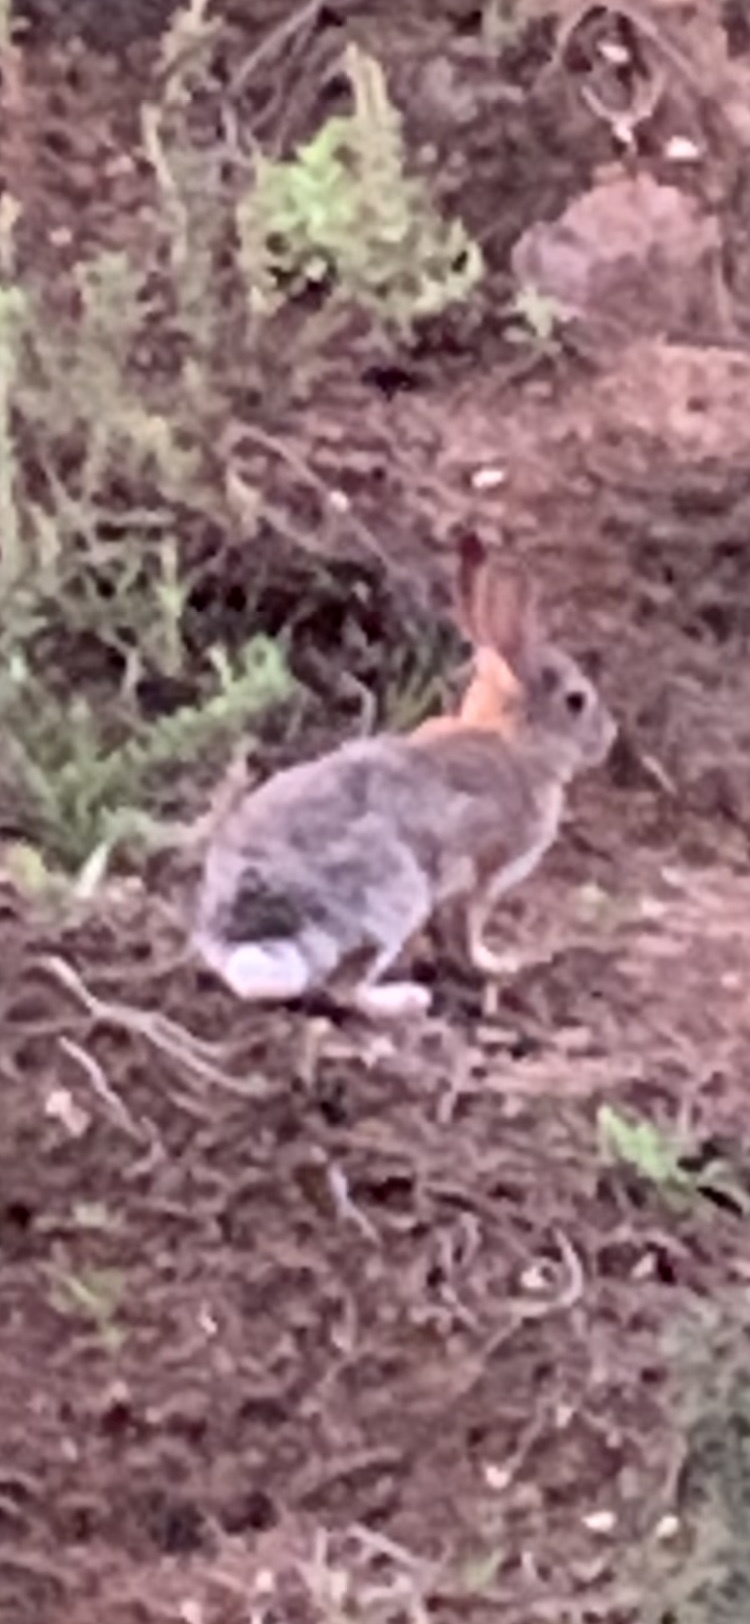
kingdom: Animalia
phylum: Chordata
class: Mammalia
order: Lagomorpha
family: Leporidae
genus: Sylvilagus
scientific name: Sylvilagus audubonii
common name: Desert cottontail
